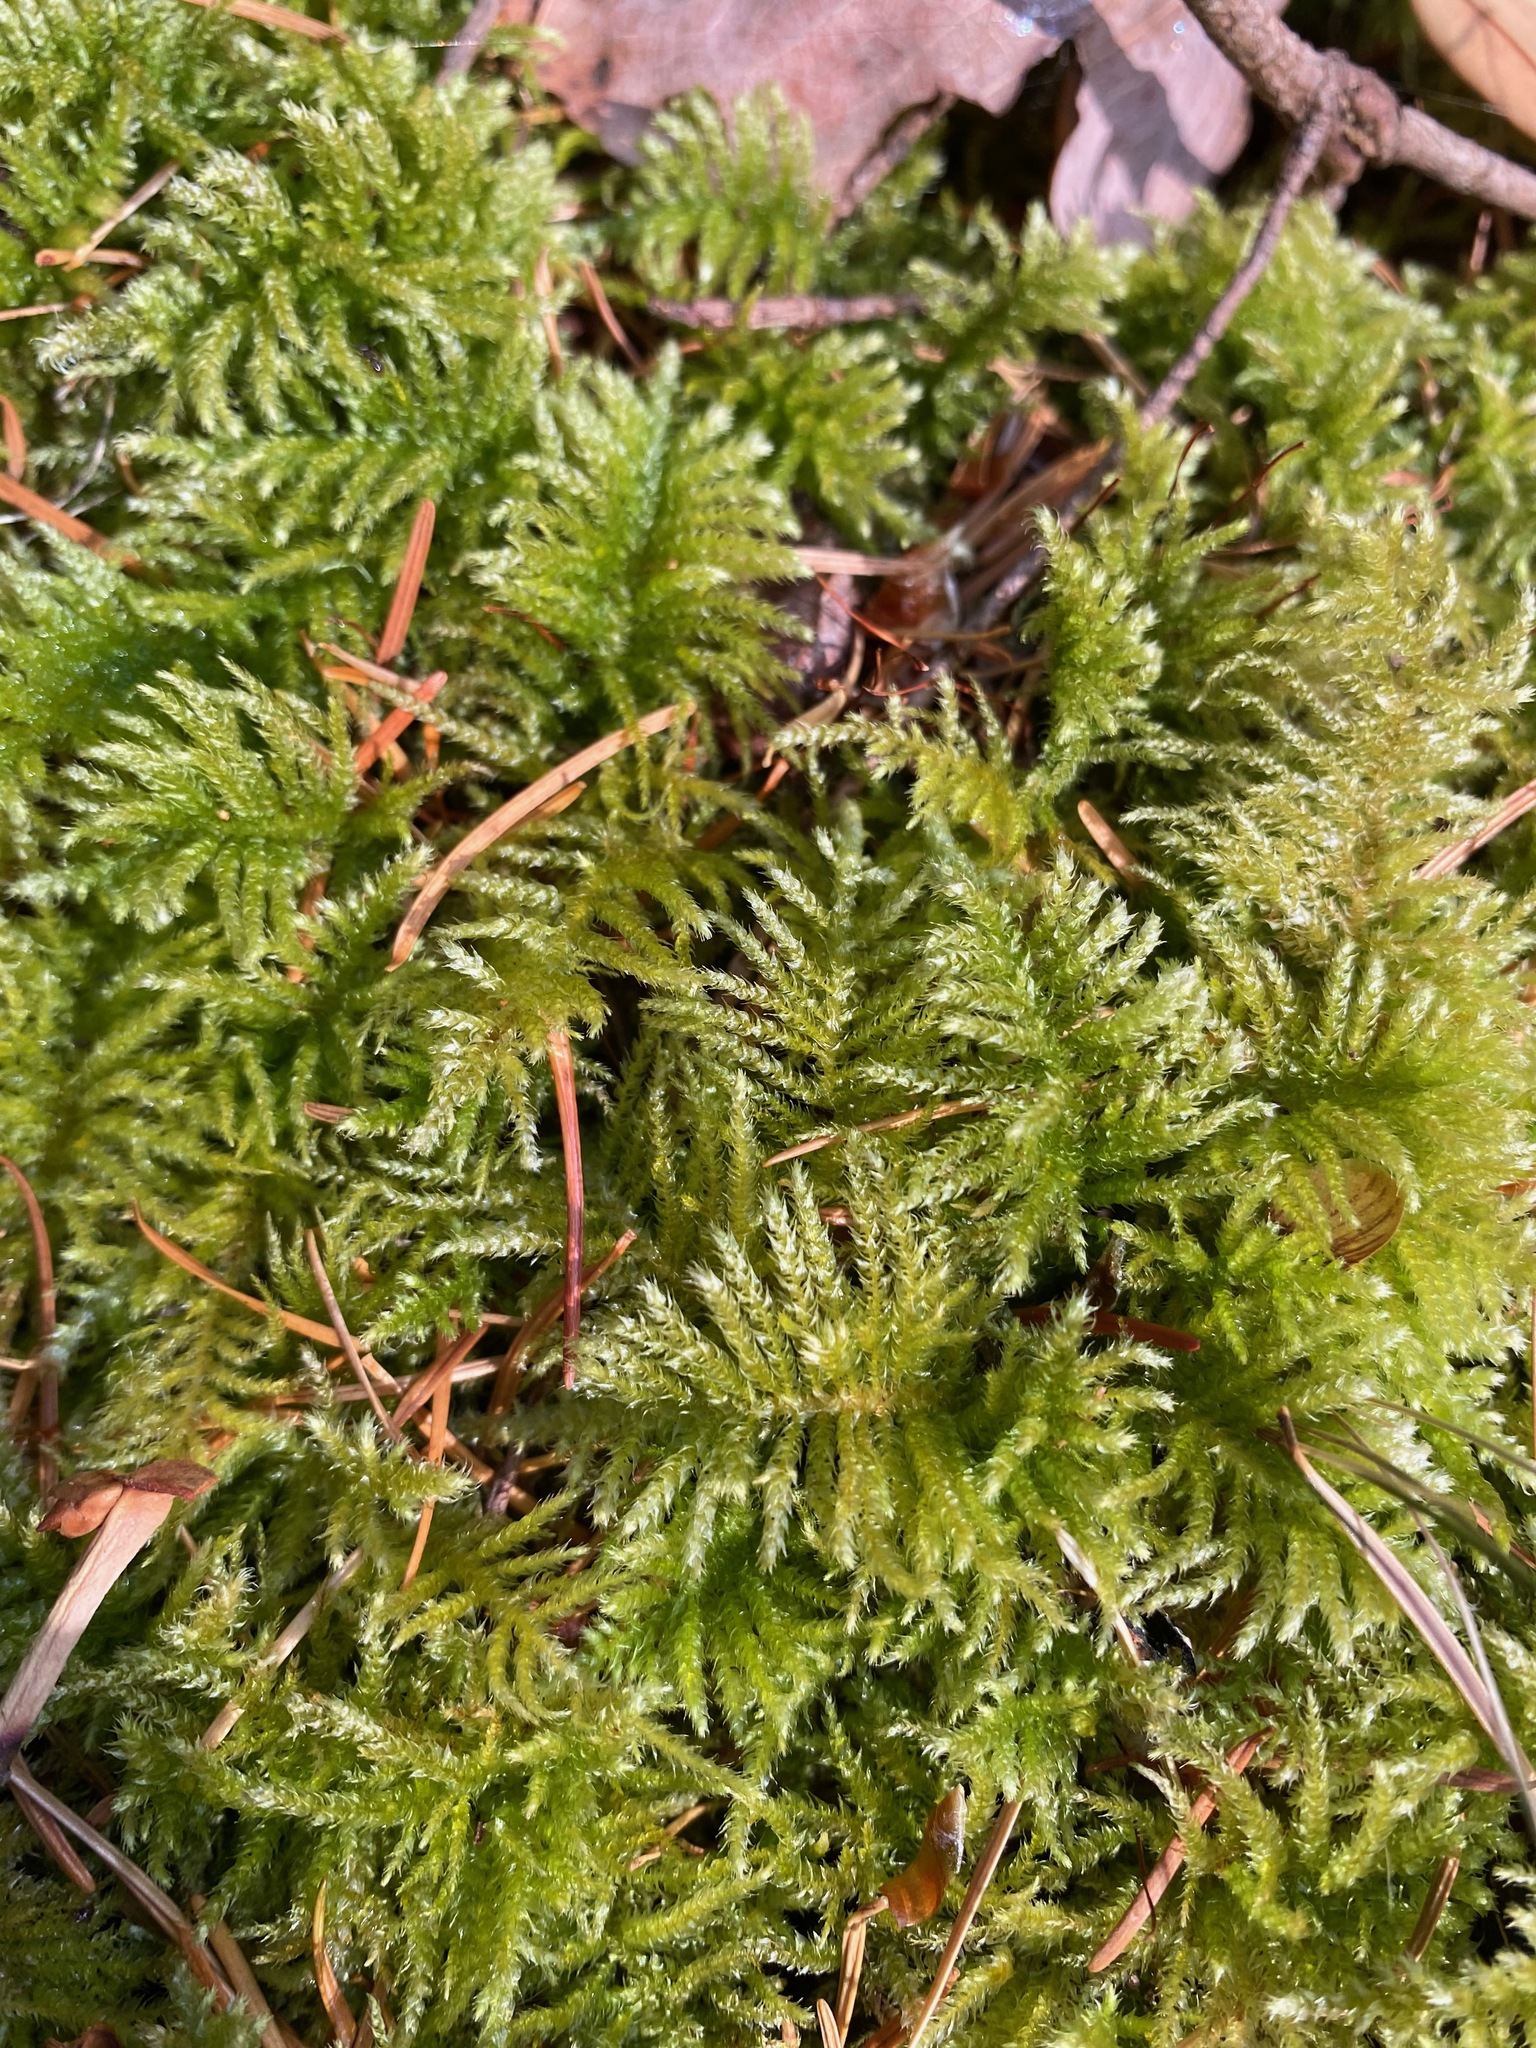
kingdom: Plantae
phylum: Bryophyta
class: Bryopsida
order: Hypnales
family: Brachytheciaceae
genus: Kindbergia
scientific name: Kindbergia oregana
